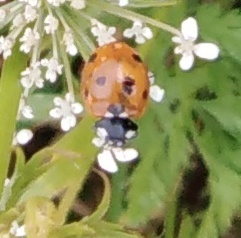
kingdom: Animalia
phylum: Arthropoda
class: Insecta
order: Coleoptera
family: Coccinellidae
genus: Coccinella
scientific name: Coccinella septempunctata
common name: Sevenspotted lady beetle
